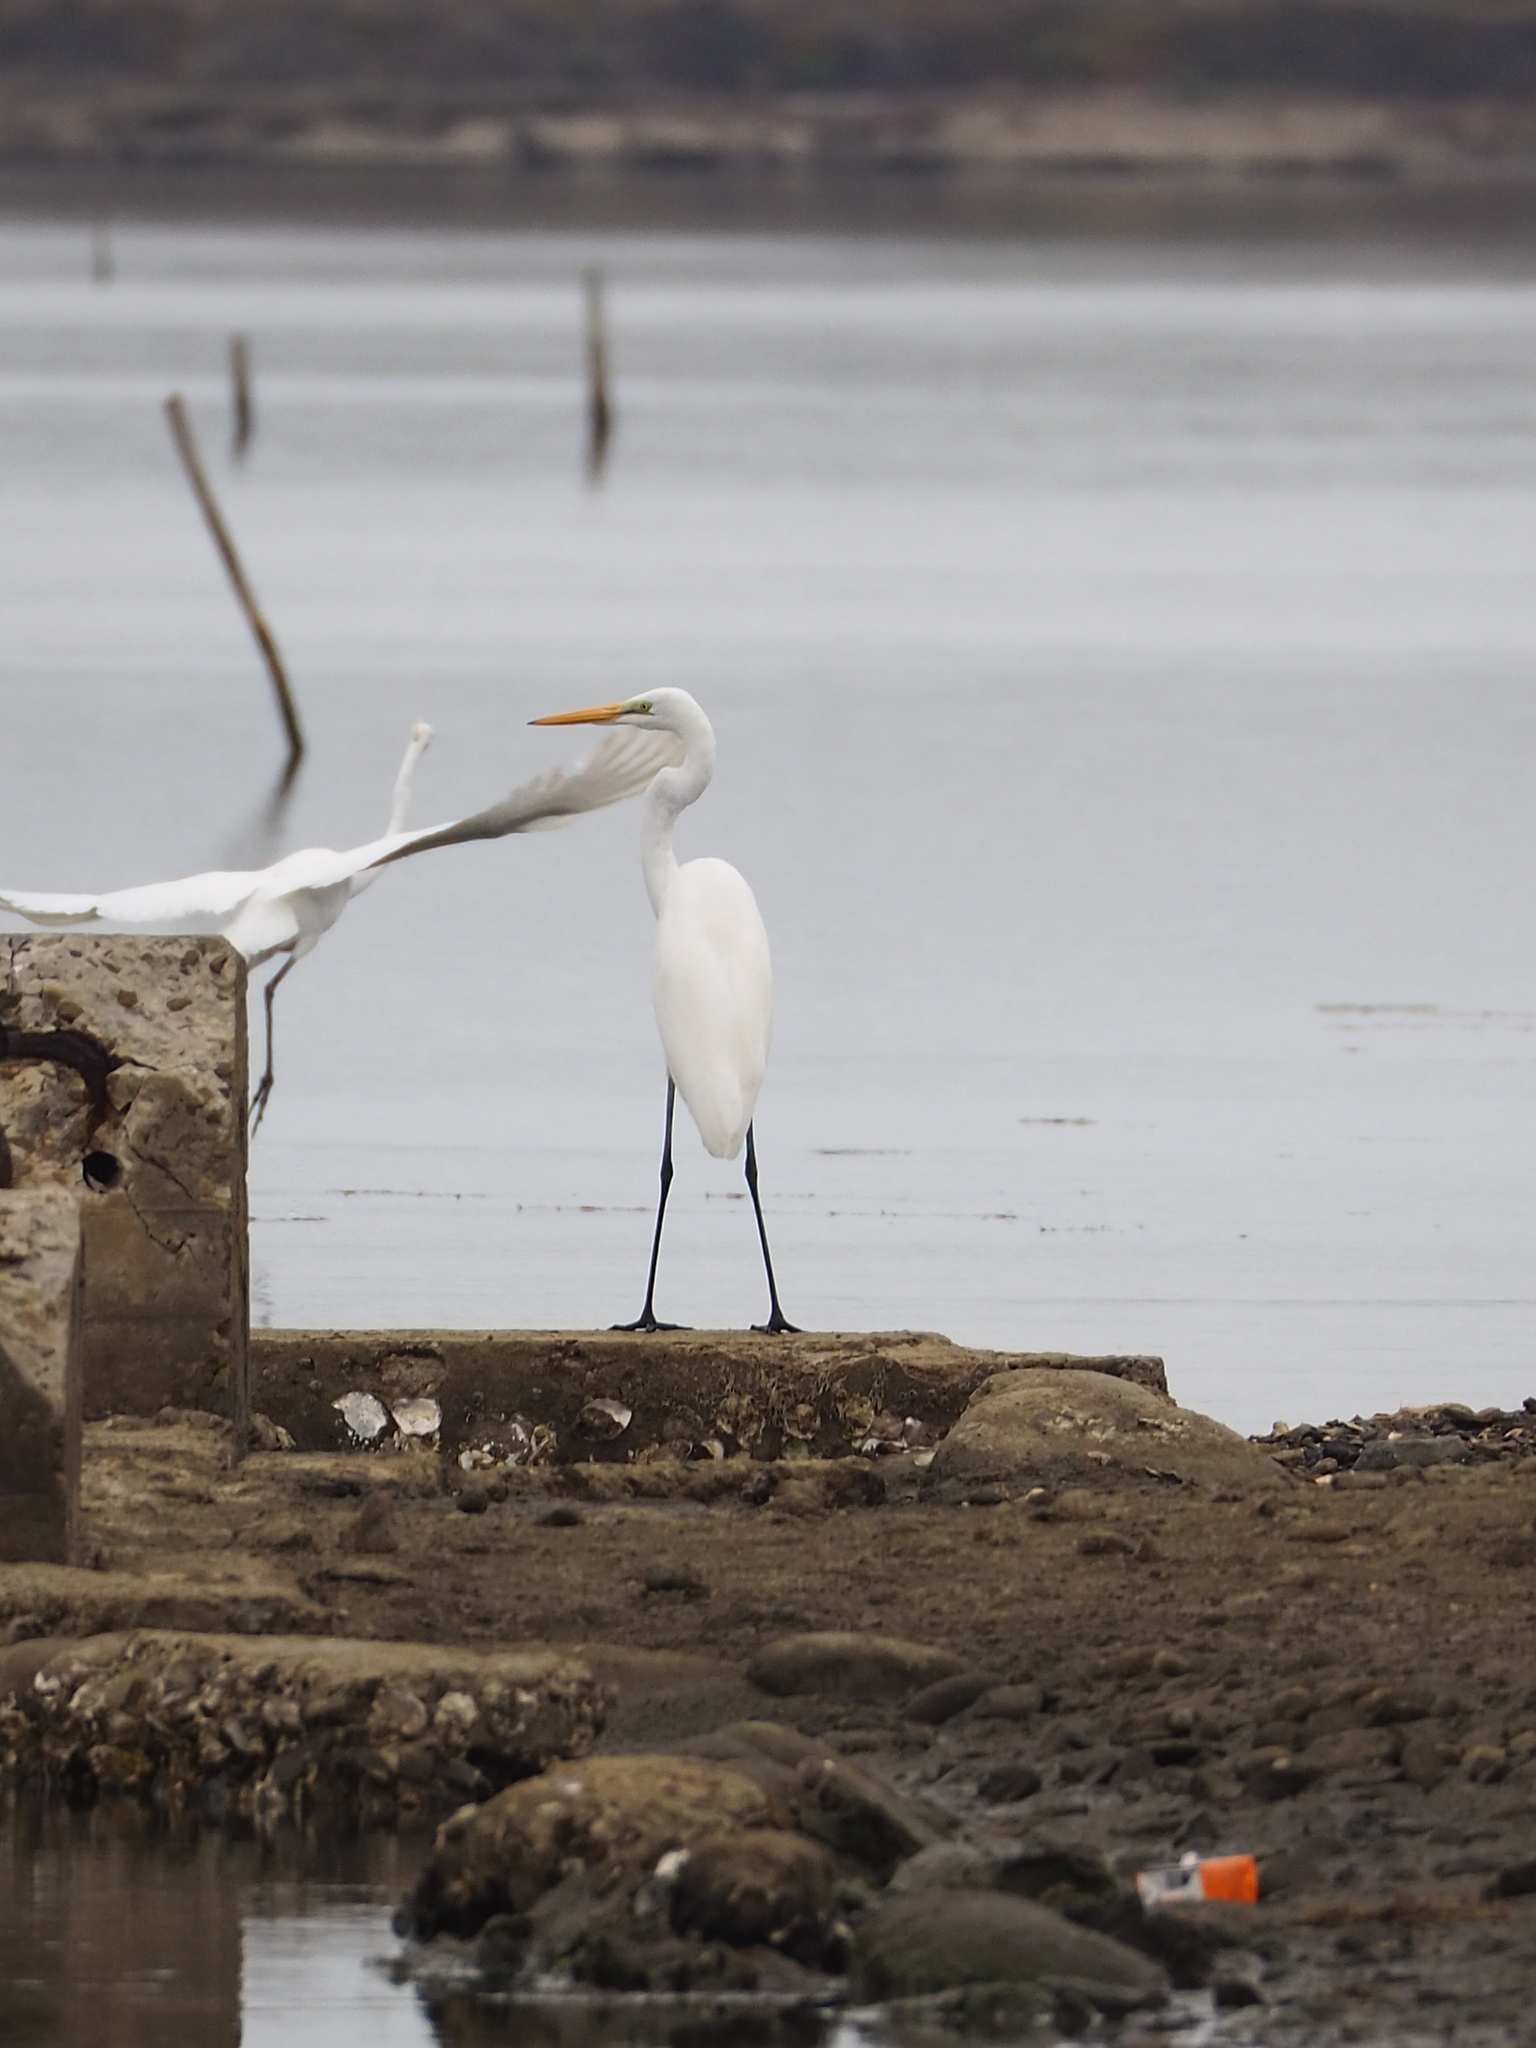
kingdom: Animalia
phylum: Chordata
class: Aves
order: Pelecaniformes
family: Ardeidae
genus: Ardea
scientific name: Ardea modesta
